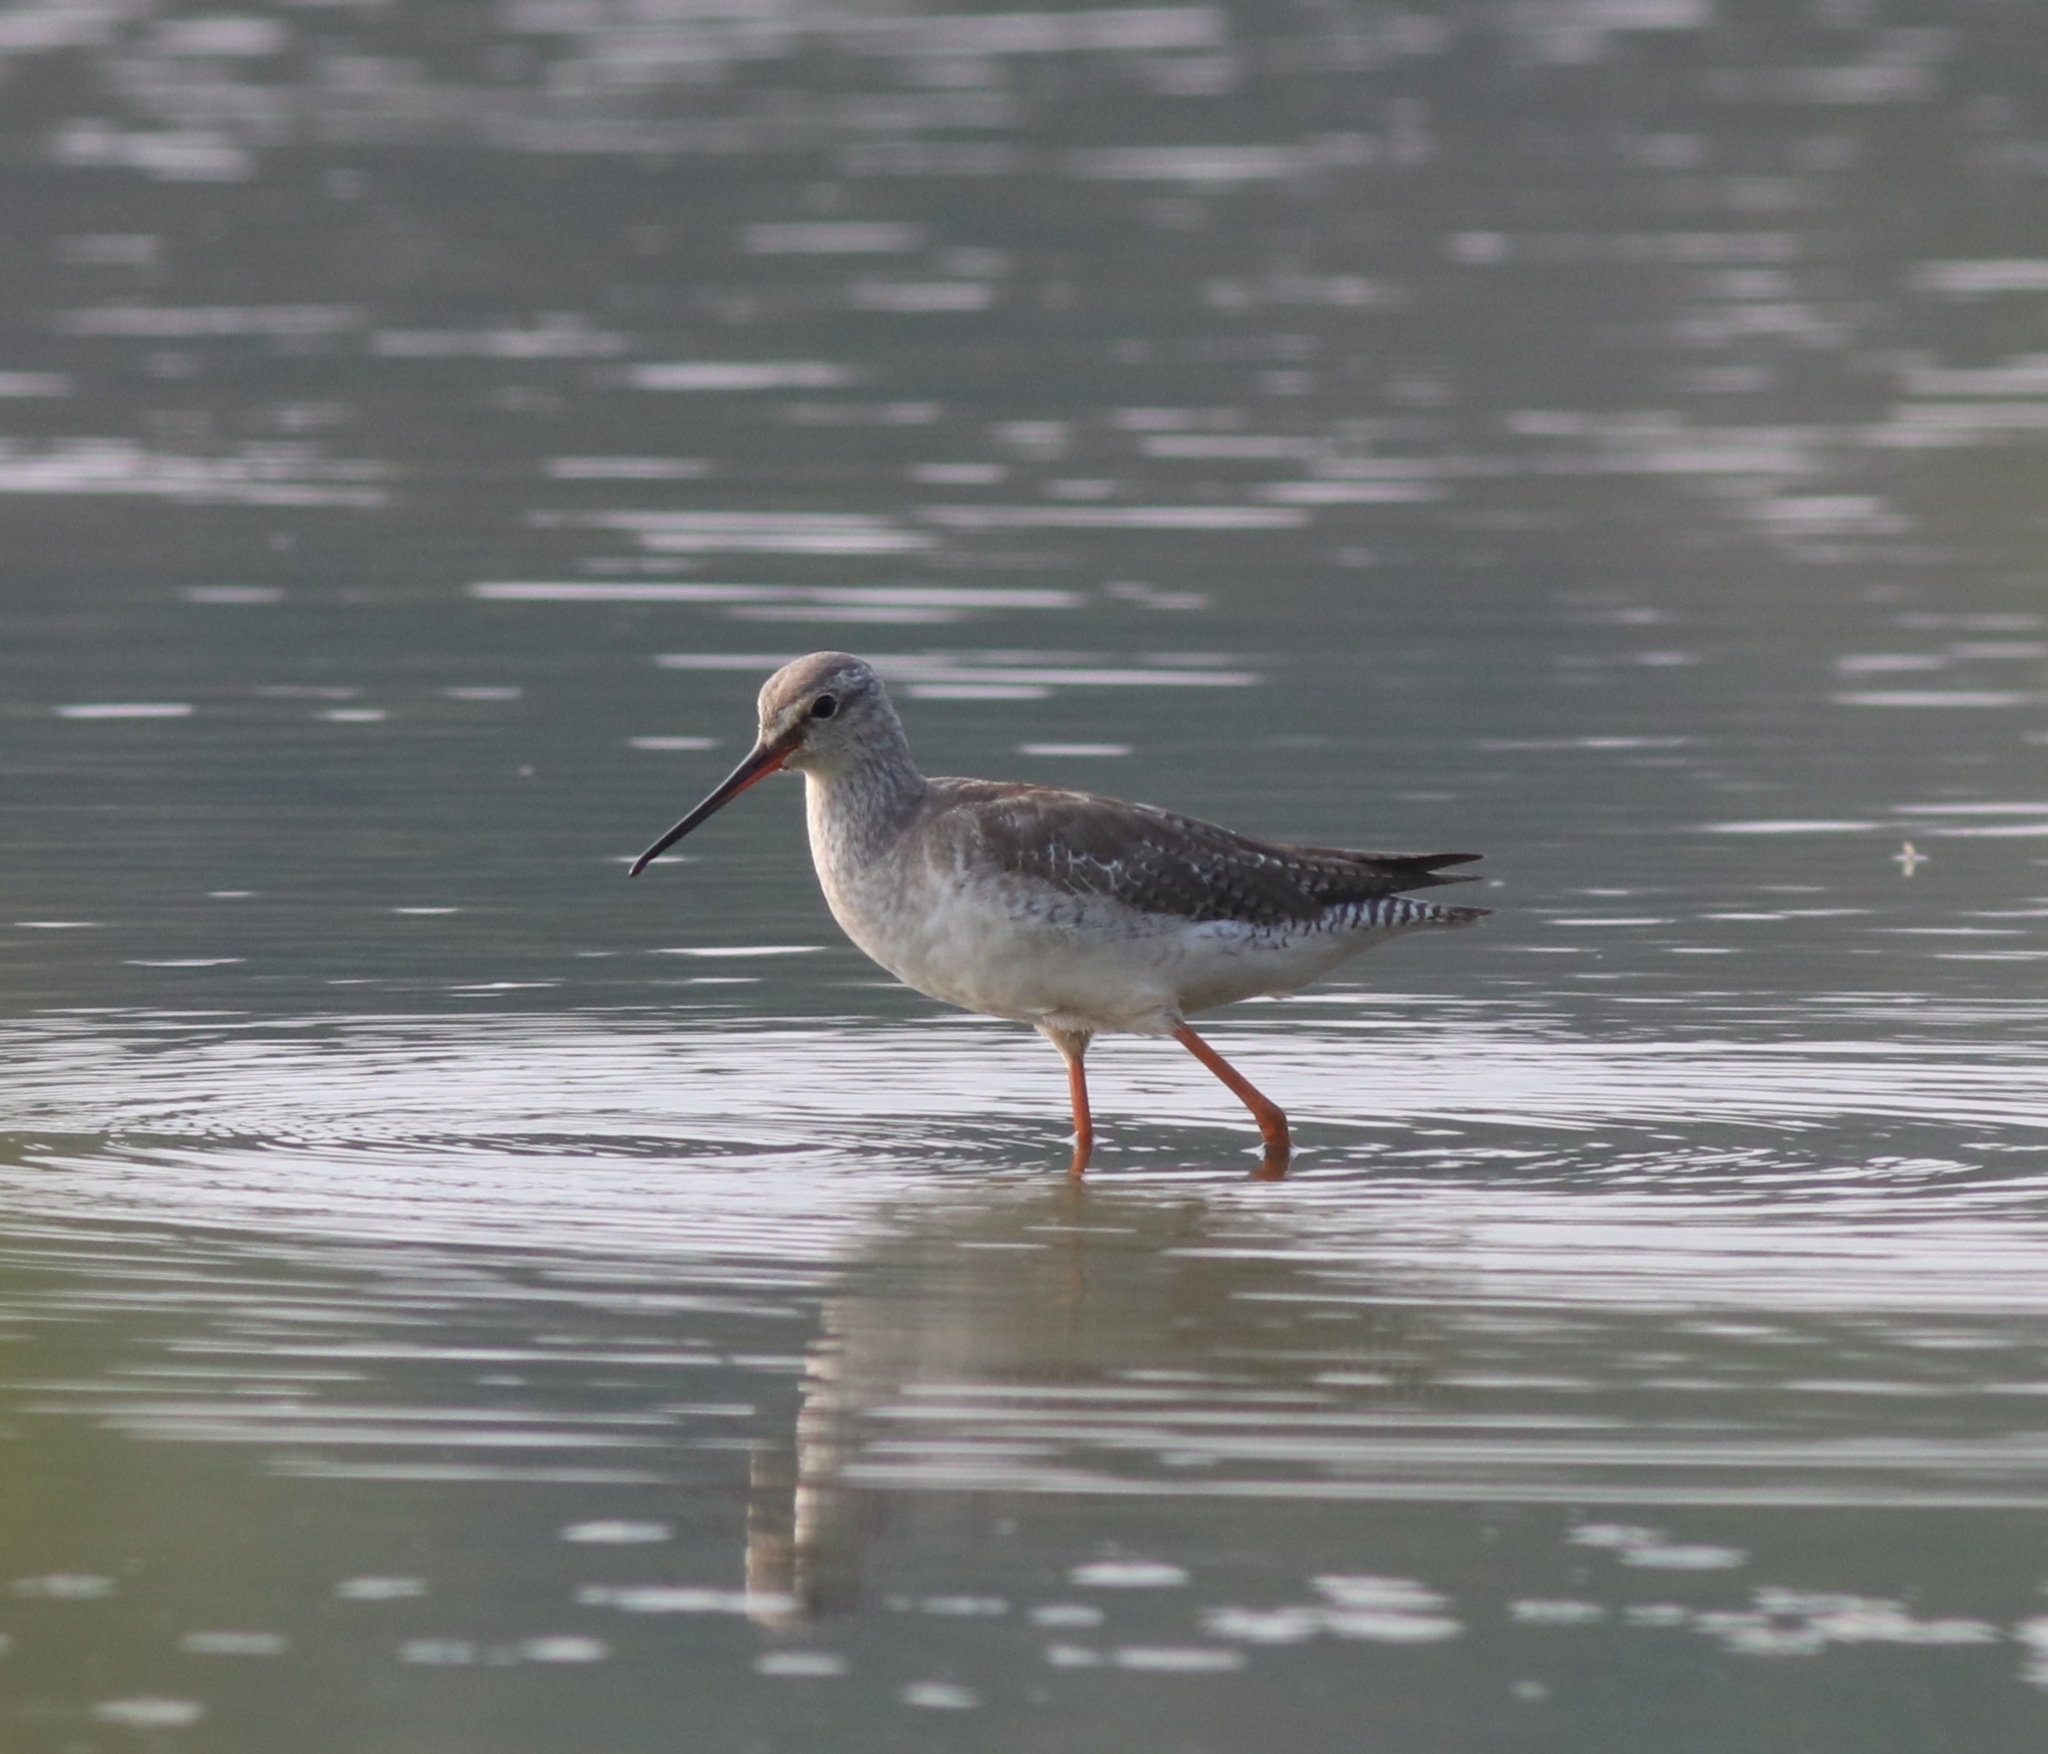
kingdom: Animalia
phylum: Chordata
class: Aves
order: Charadriiformes
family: Scolopacidae
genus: Tringa
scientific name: Tringa erythropus
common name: Spotted redshank
